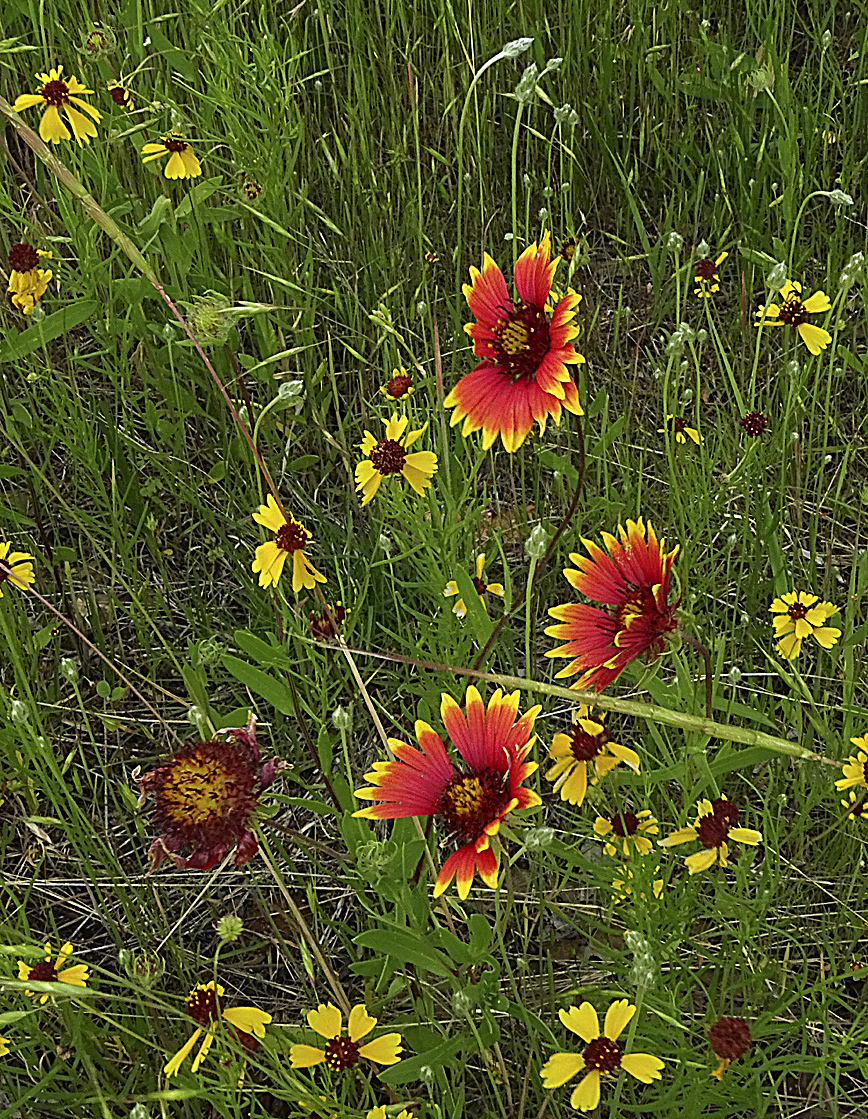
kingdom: Plantae
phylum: Tracheophyta
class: Magnoliopsida
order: Asterales
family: Asteraceae
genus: Gaillardia
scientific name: Gaillardia pulchella
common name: Firewheel
